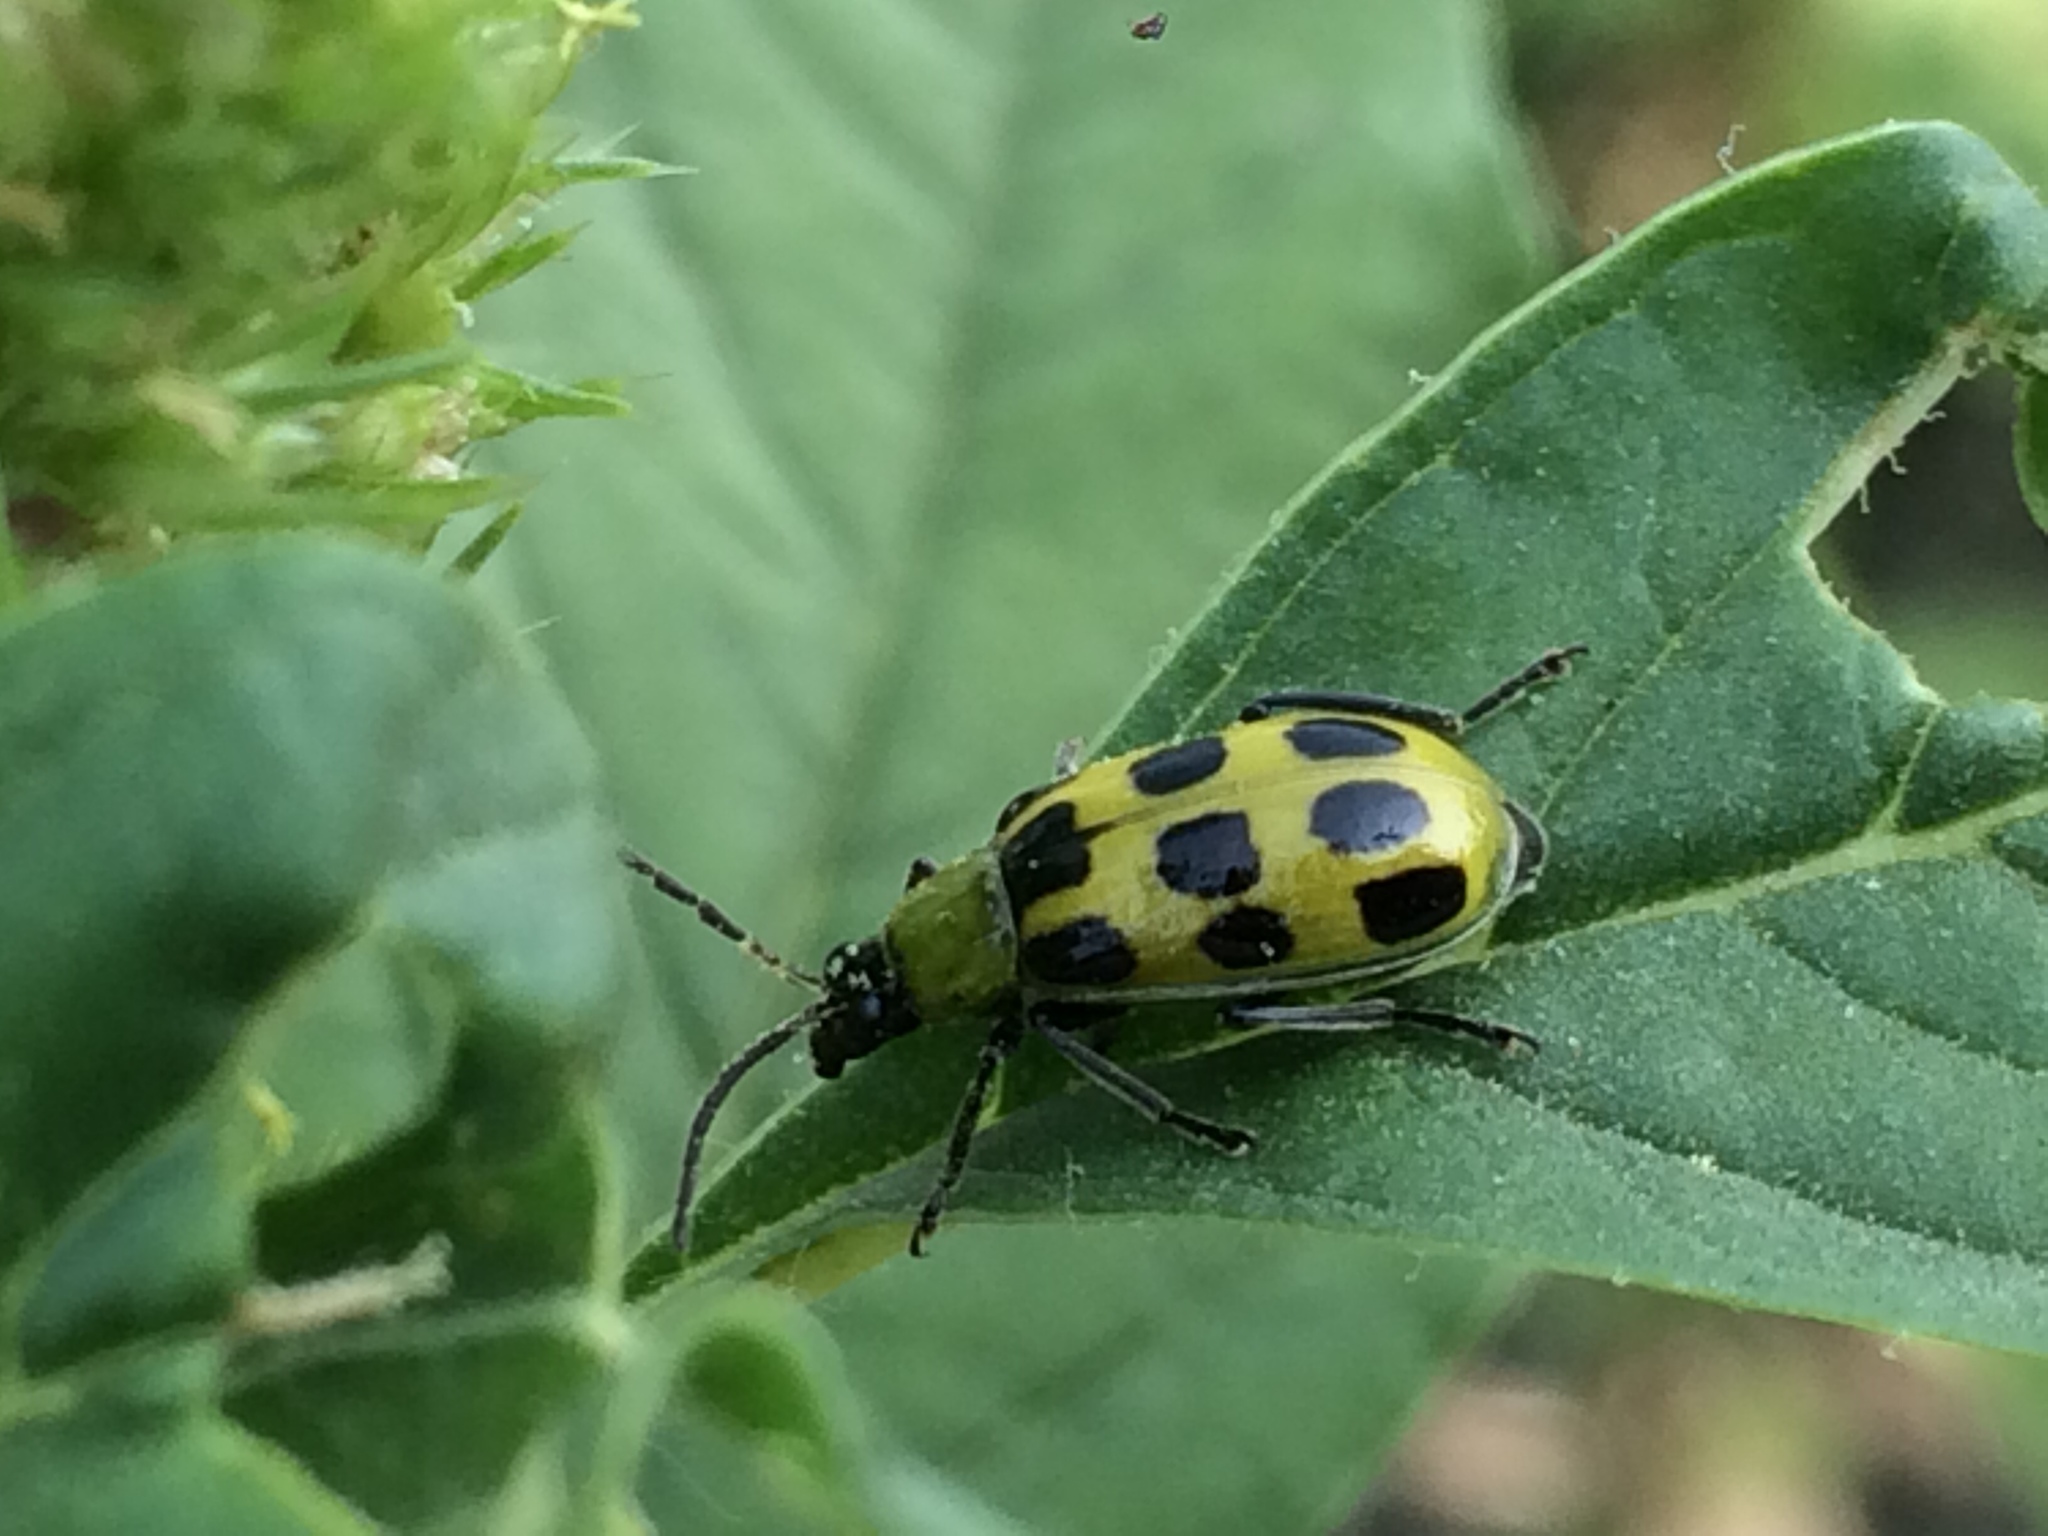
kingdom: Animalia
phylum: Arthropoda
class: Insecta
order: Coleoptera
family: Chrysomelidae
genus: Diabrotica
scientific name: Diabrotica undecimpunctata
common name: Spotted cucumber beetle
